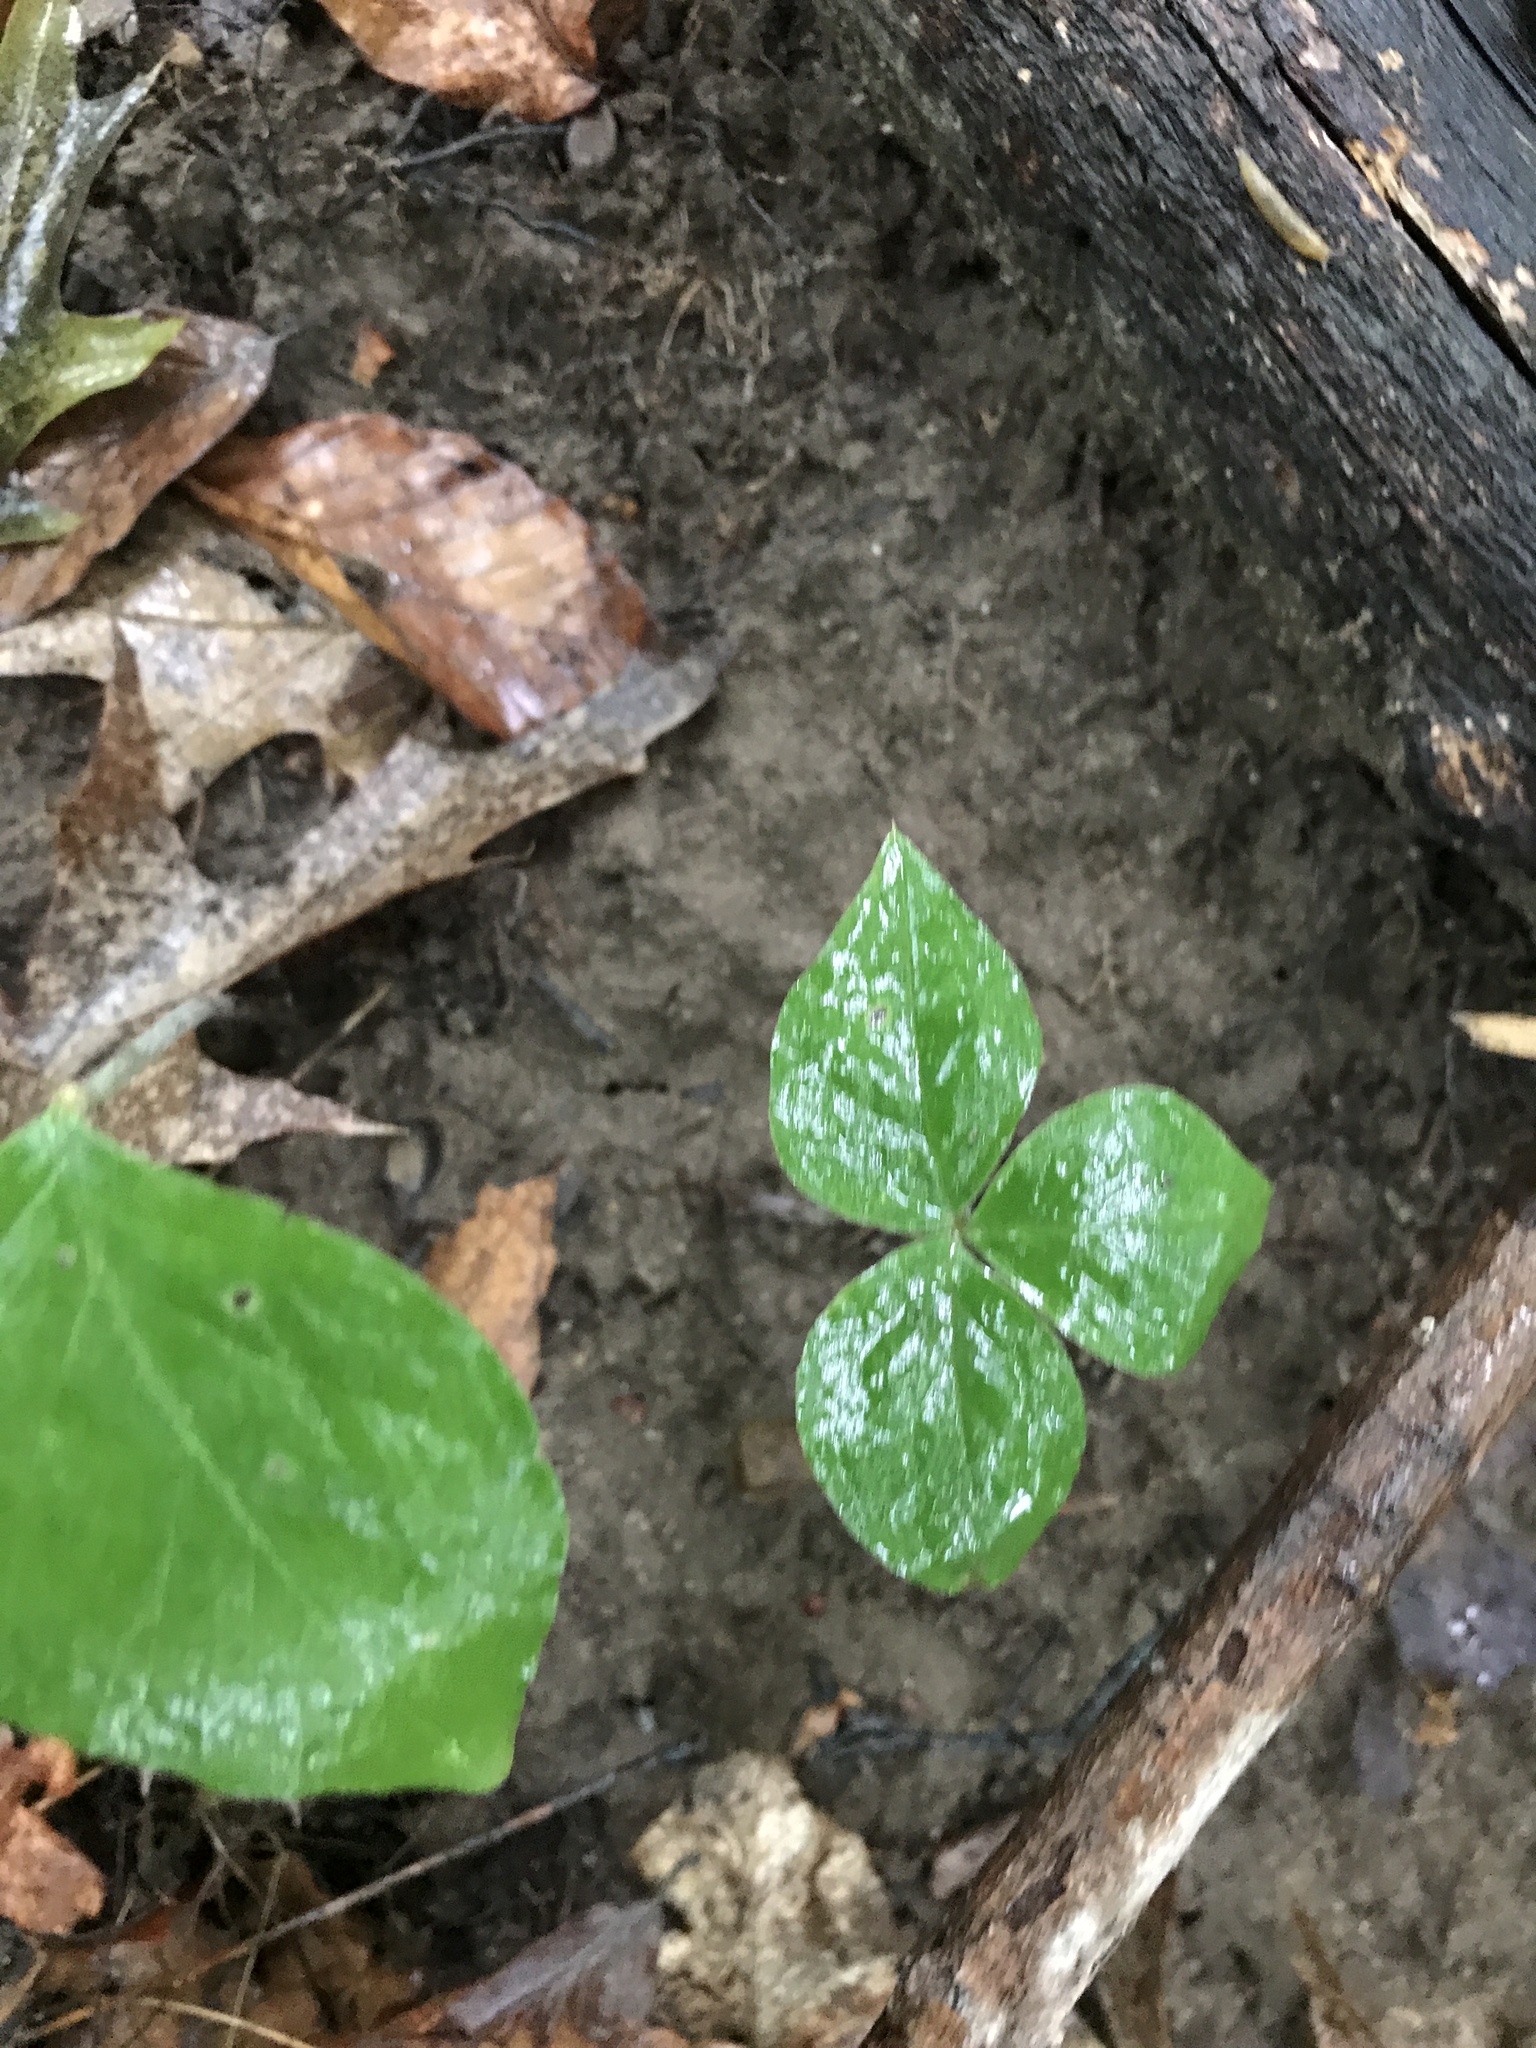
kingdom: Plantae
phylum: Tracheophyta
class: Liliopsida
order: Alismatales
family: Araceae
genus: Arisaema
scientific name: Arisaema triphyllum
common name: Jack-in-the-pulpit
